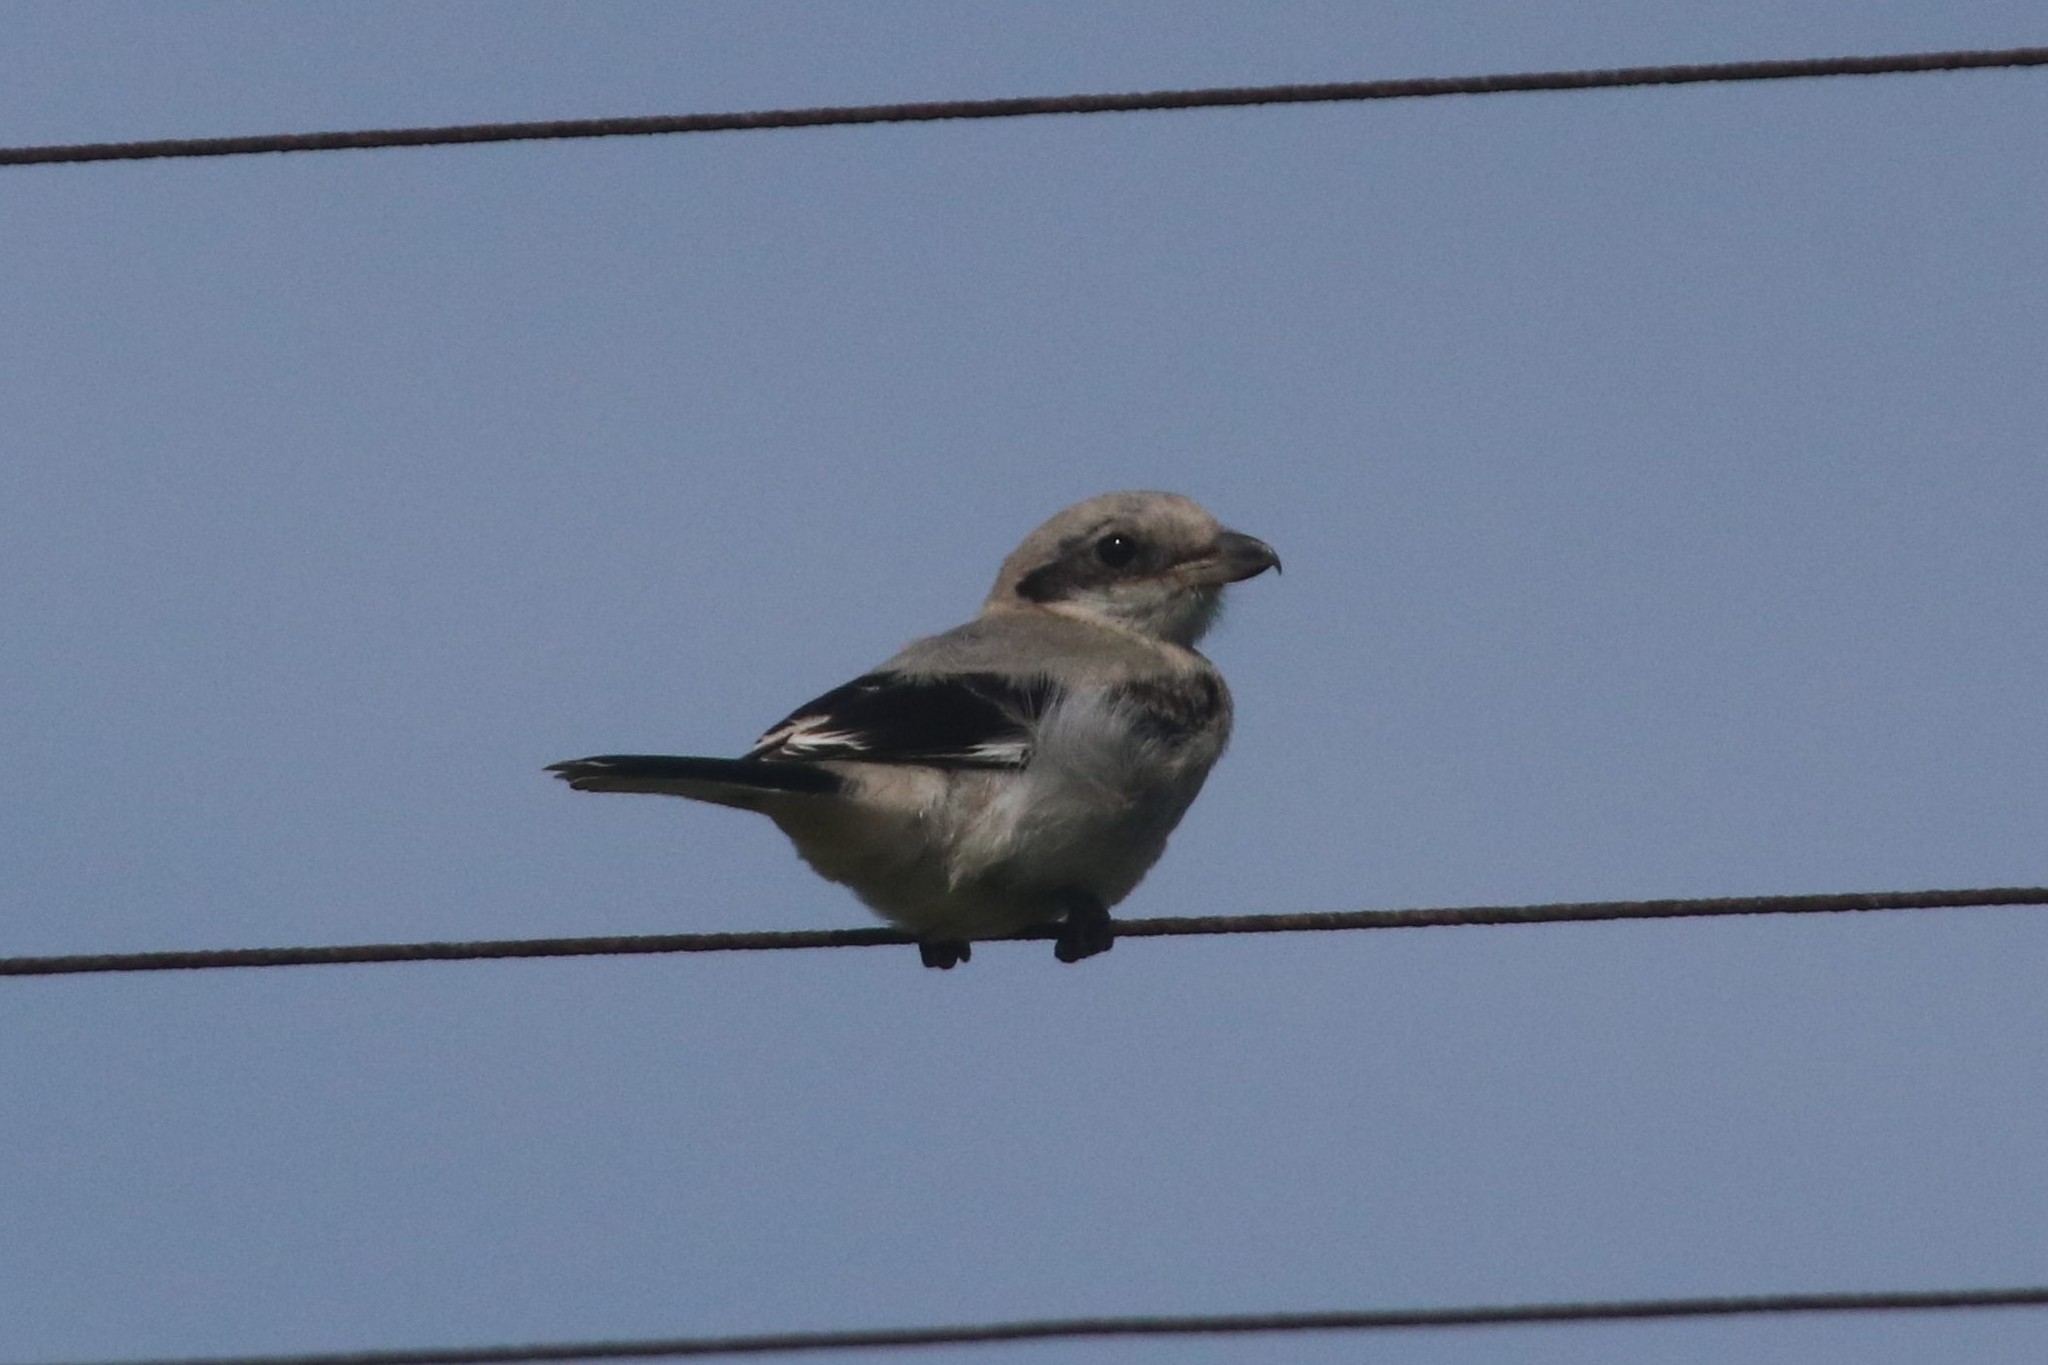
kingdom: Animalia
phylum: Chordata
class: Aves
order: Passeriformes
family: Laniidae
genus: Lanius
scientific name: Lanius excubitor
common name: Great grey shrike
